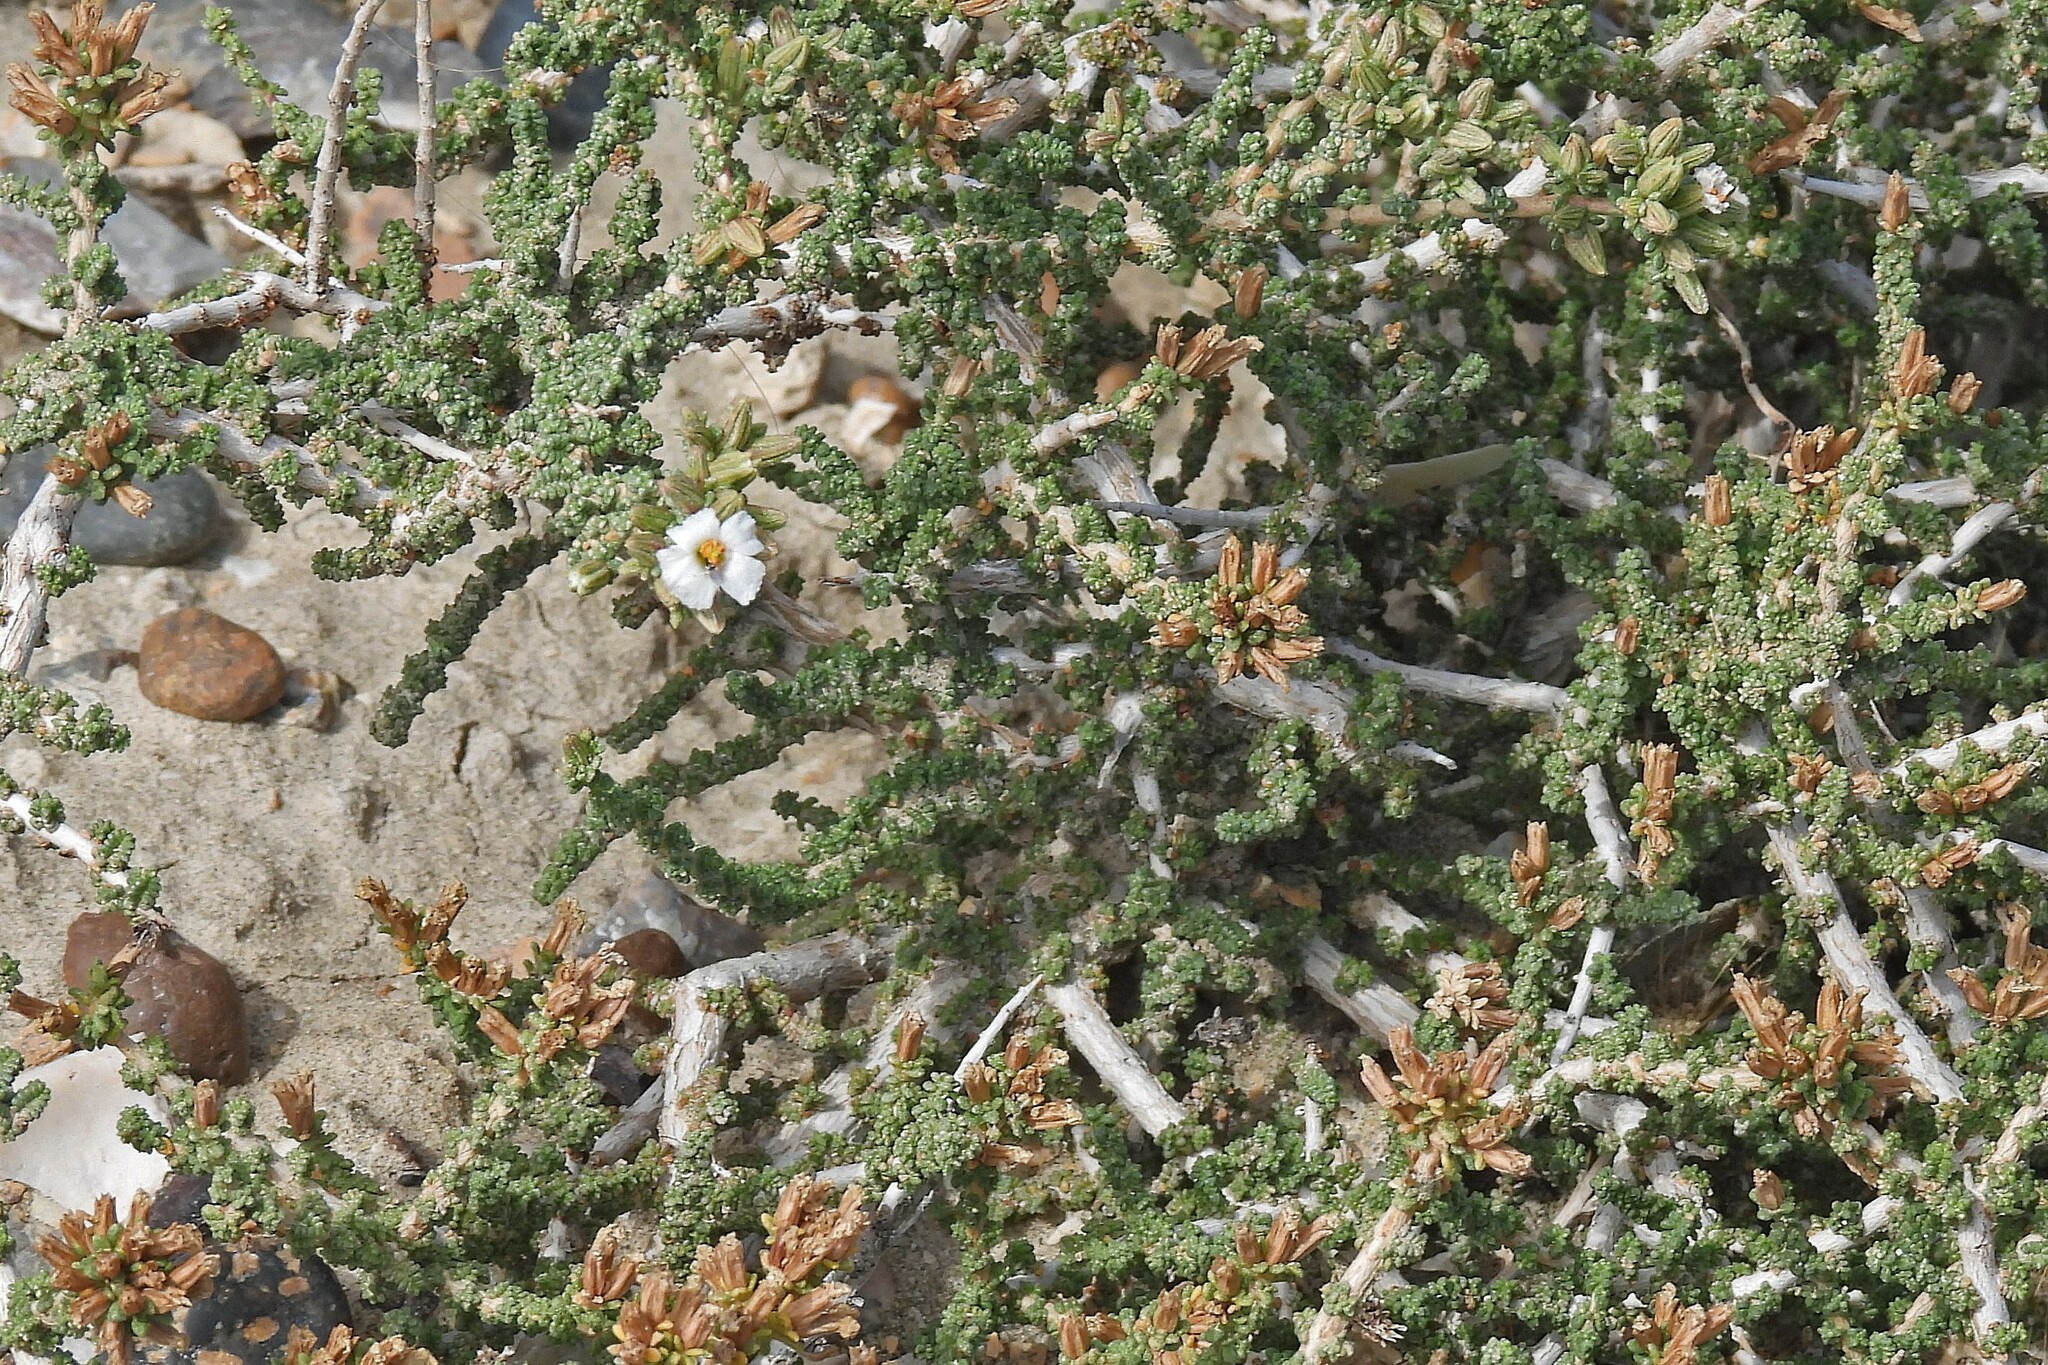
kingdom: Plantae
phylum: Tracheophyta
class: Magnoliopsida
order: Caryophyllales
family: Frankeniaceae
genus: Frankenia
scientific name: Frankenia patagonica
